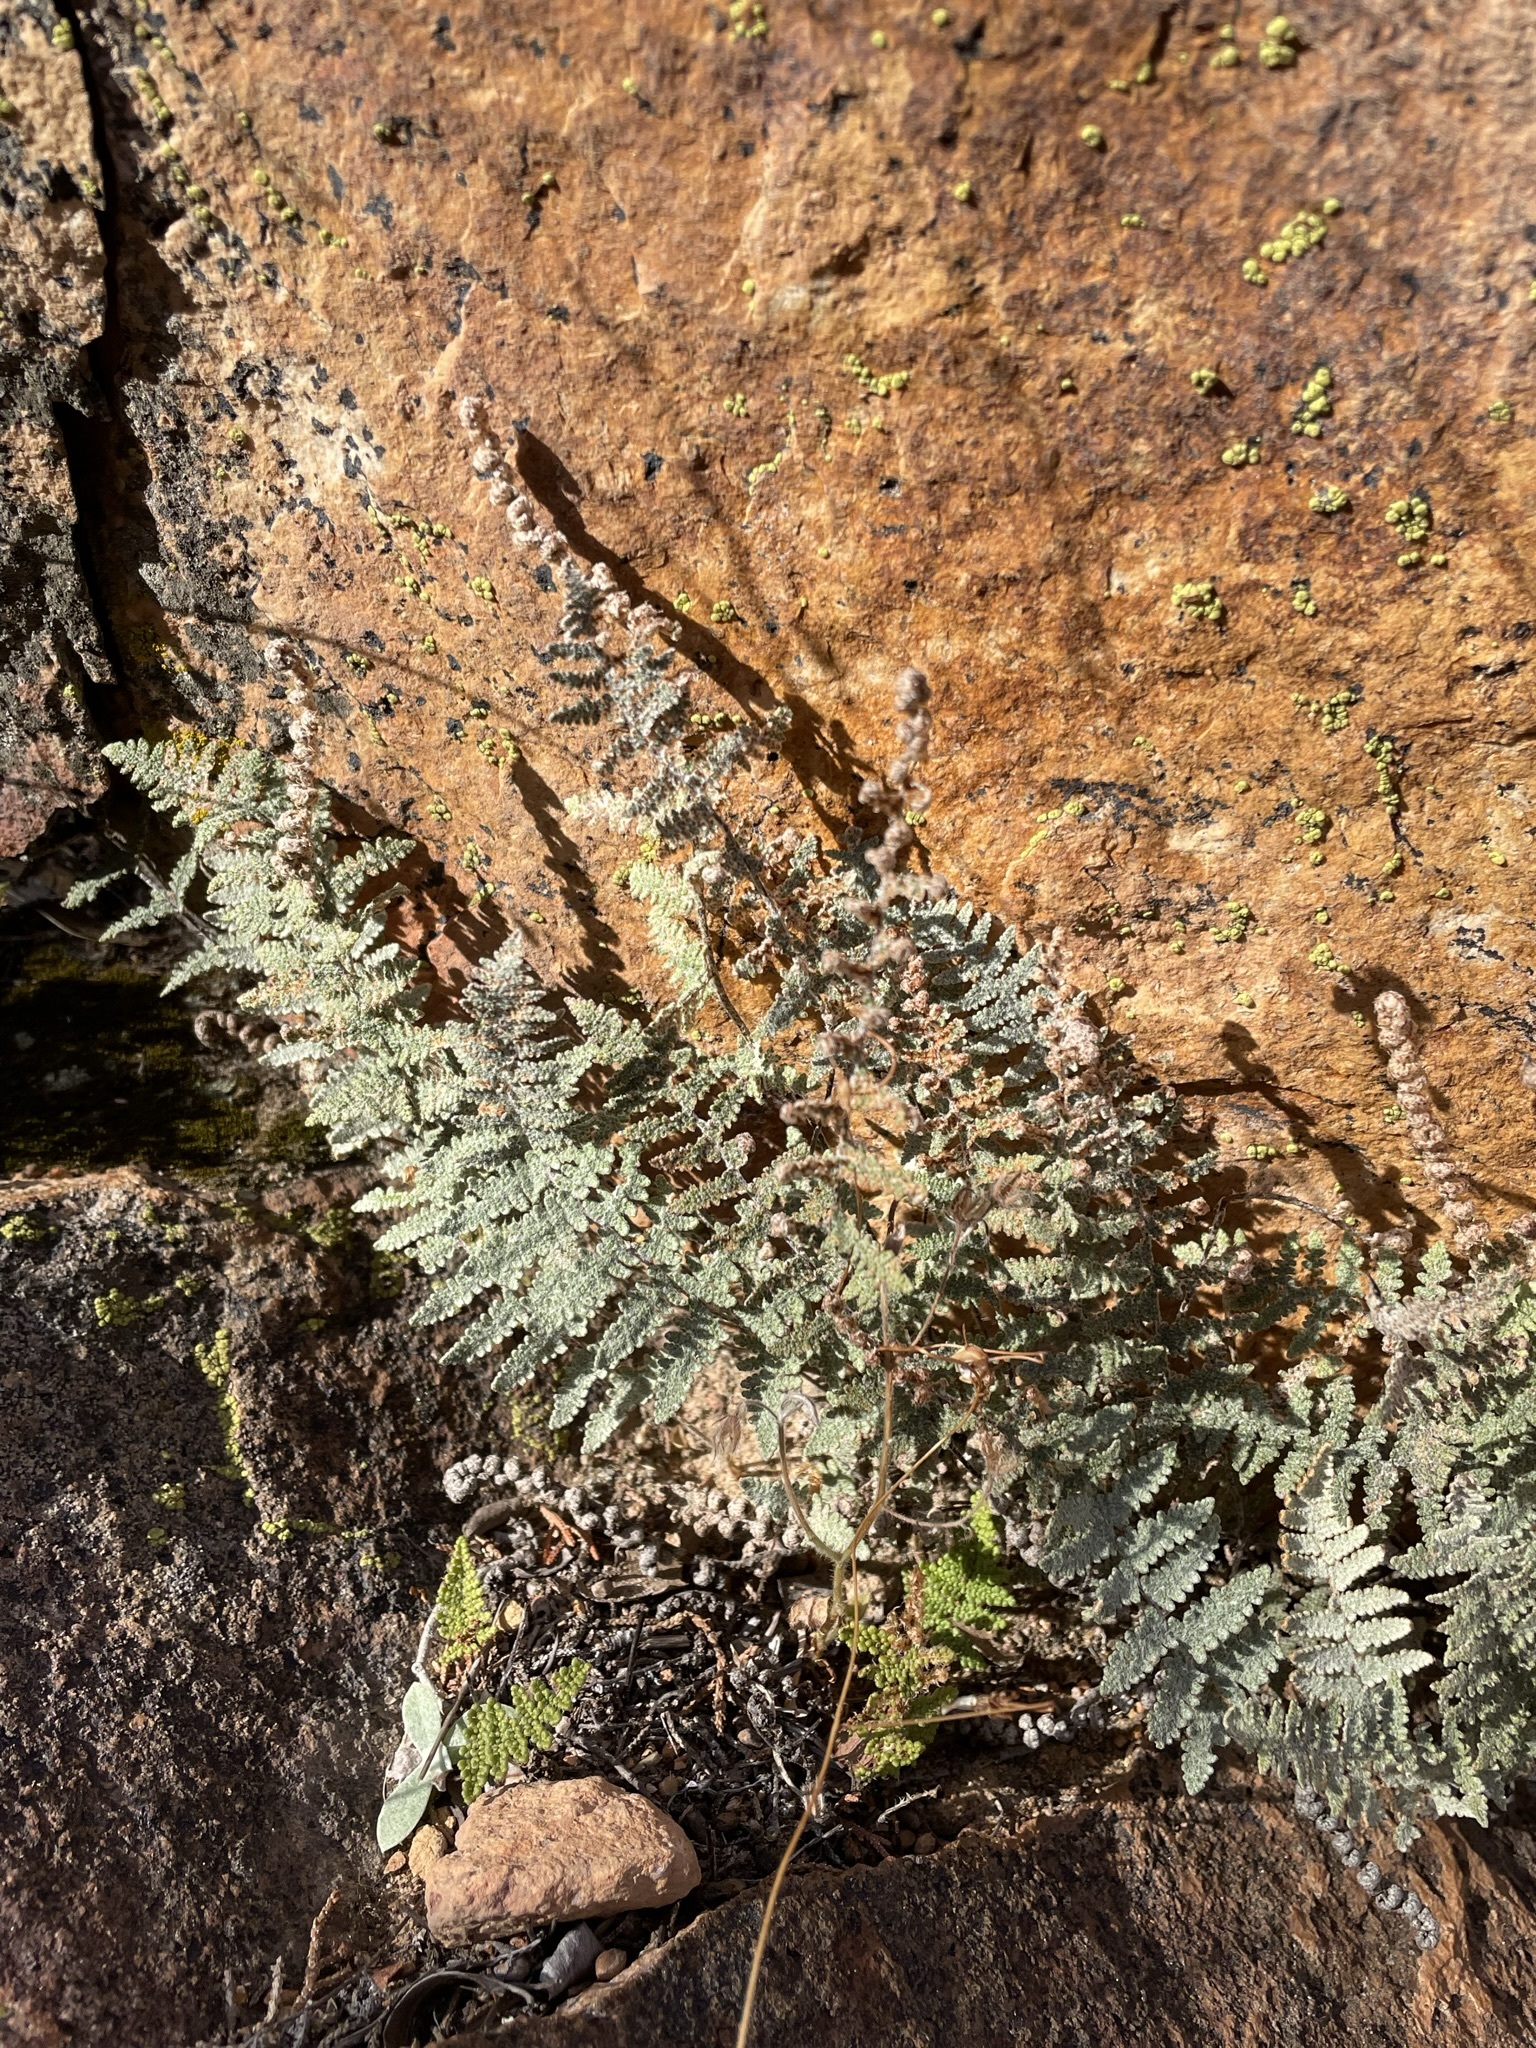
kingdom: Plantae
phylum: Tracheophyta
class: Polypodiopsida
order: Polypodiales
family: Pteridaceae
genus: Myriopteris
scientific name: Myriopteris lindheimeri
